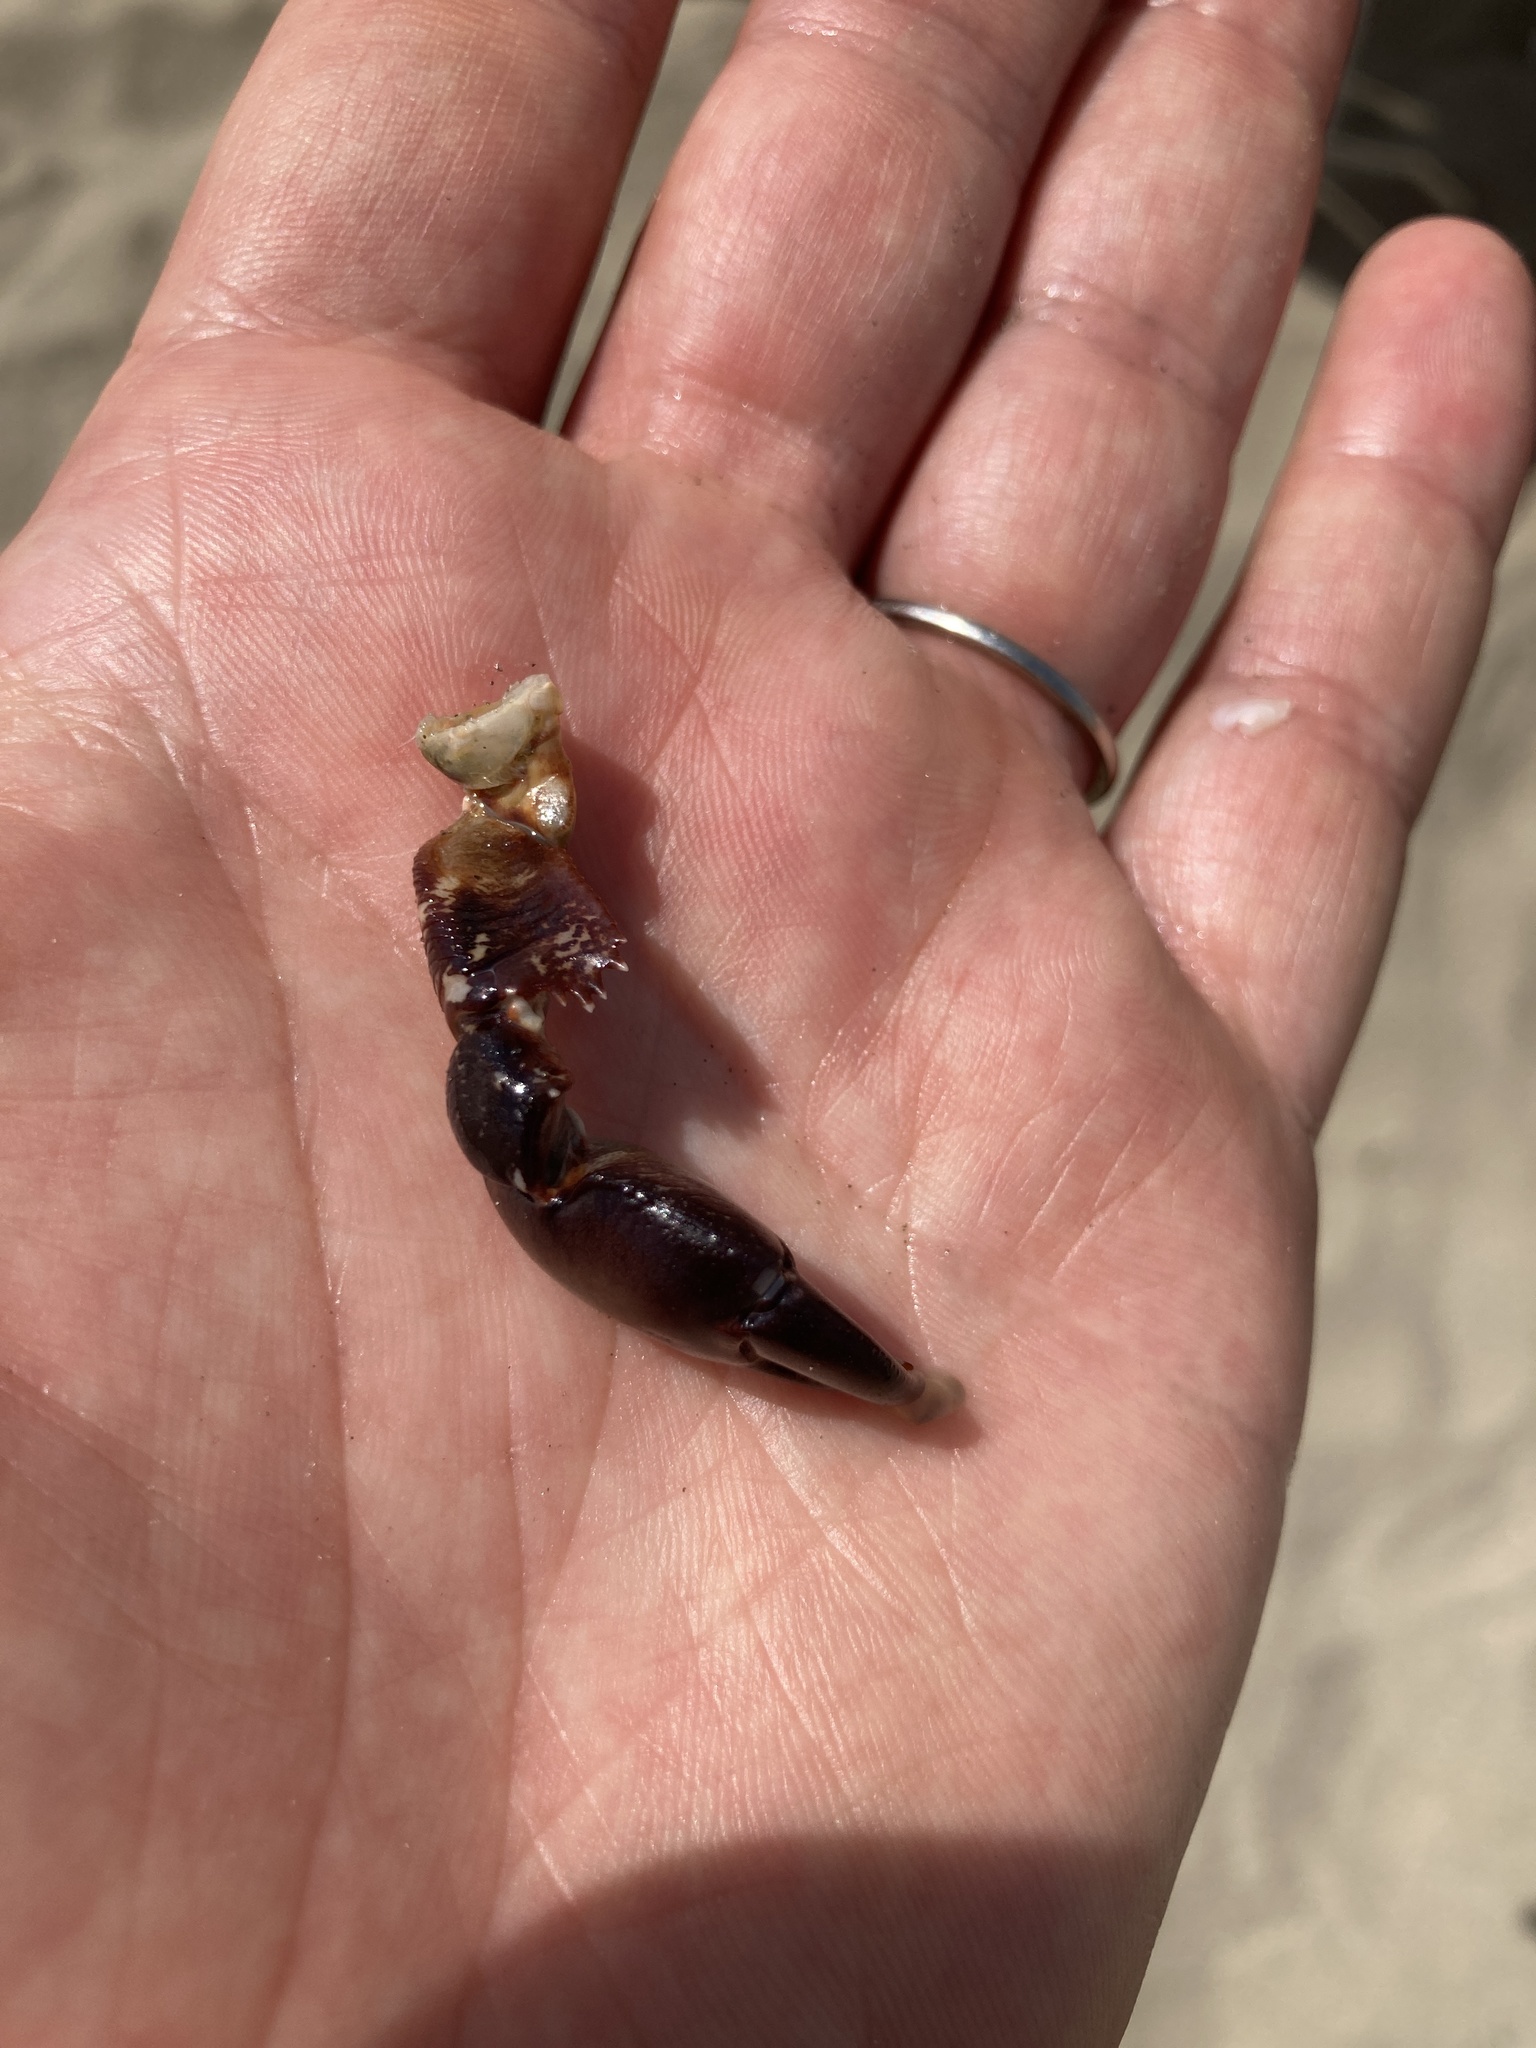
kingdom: Animalia
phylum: Arthropoda
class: Malacostraca
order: Decapoda
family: Grapsidae
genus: Pachygrapsus
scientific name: Pachygrapsus marmoratus
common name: Marbled rock crab
